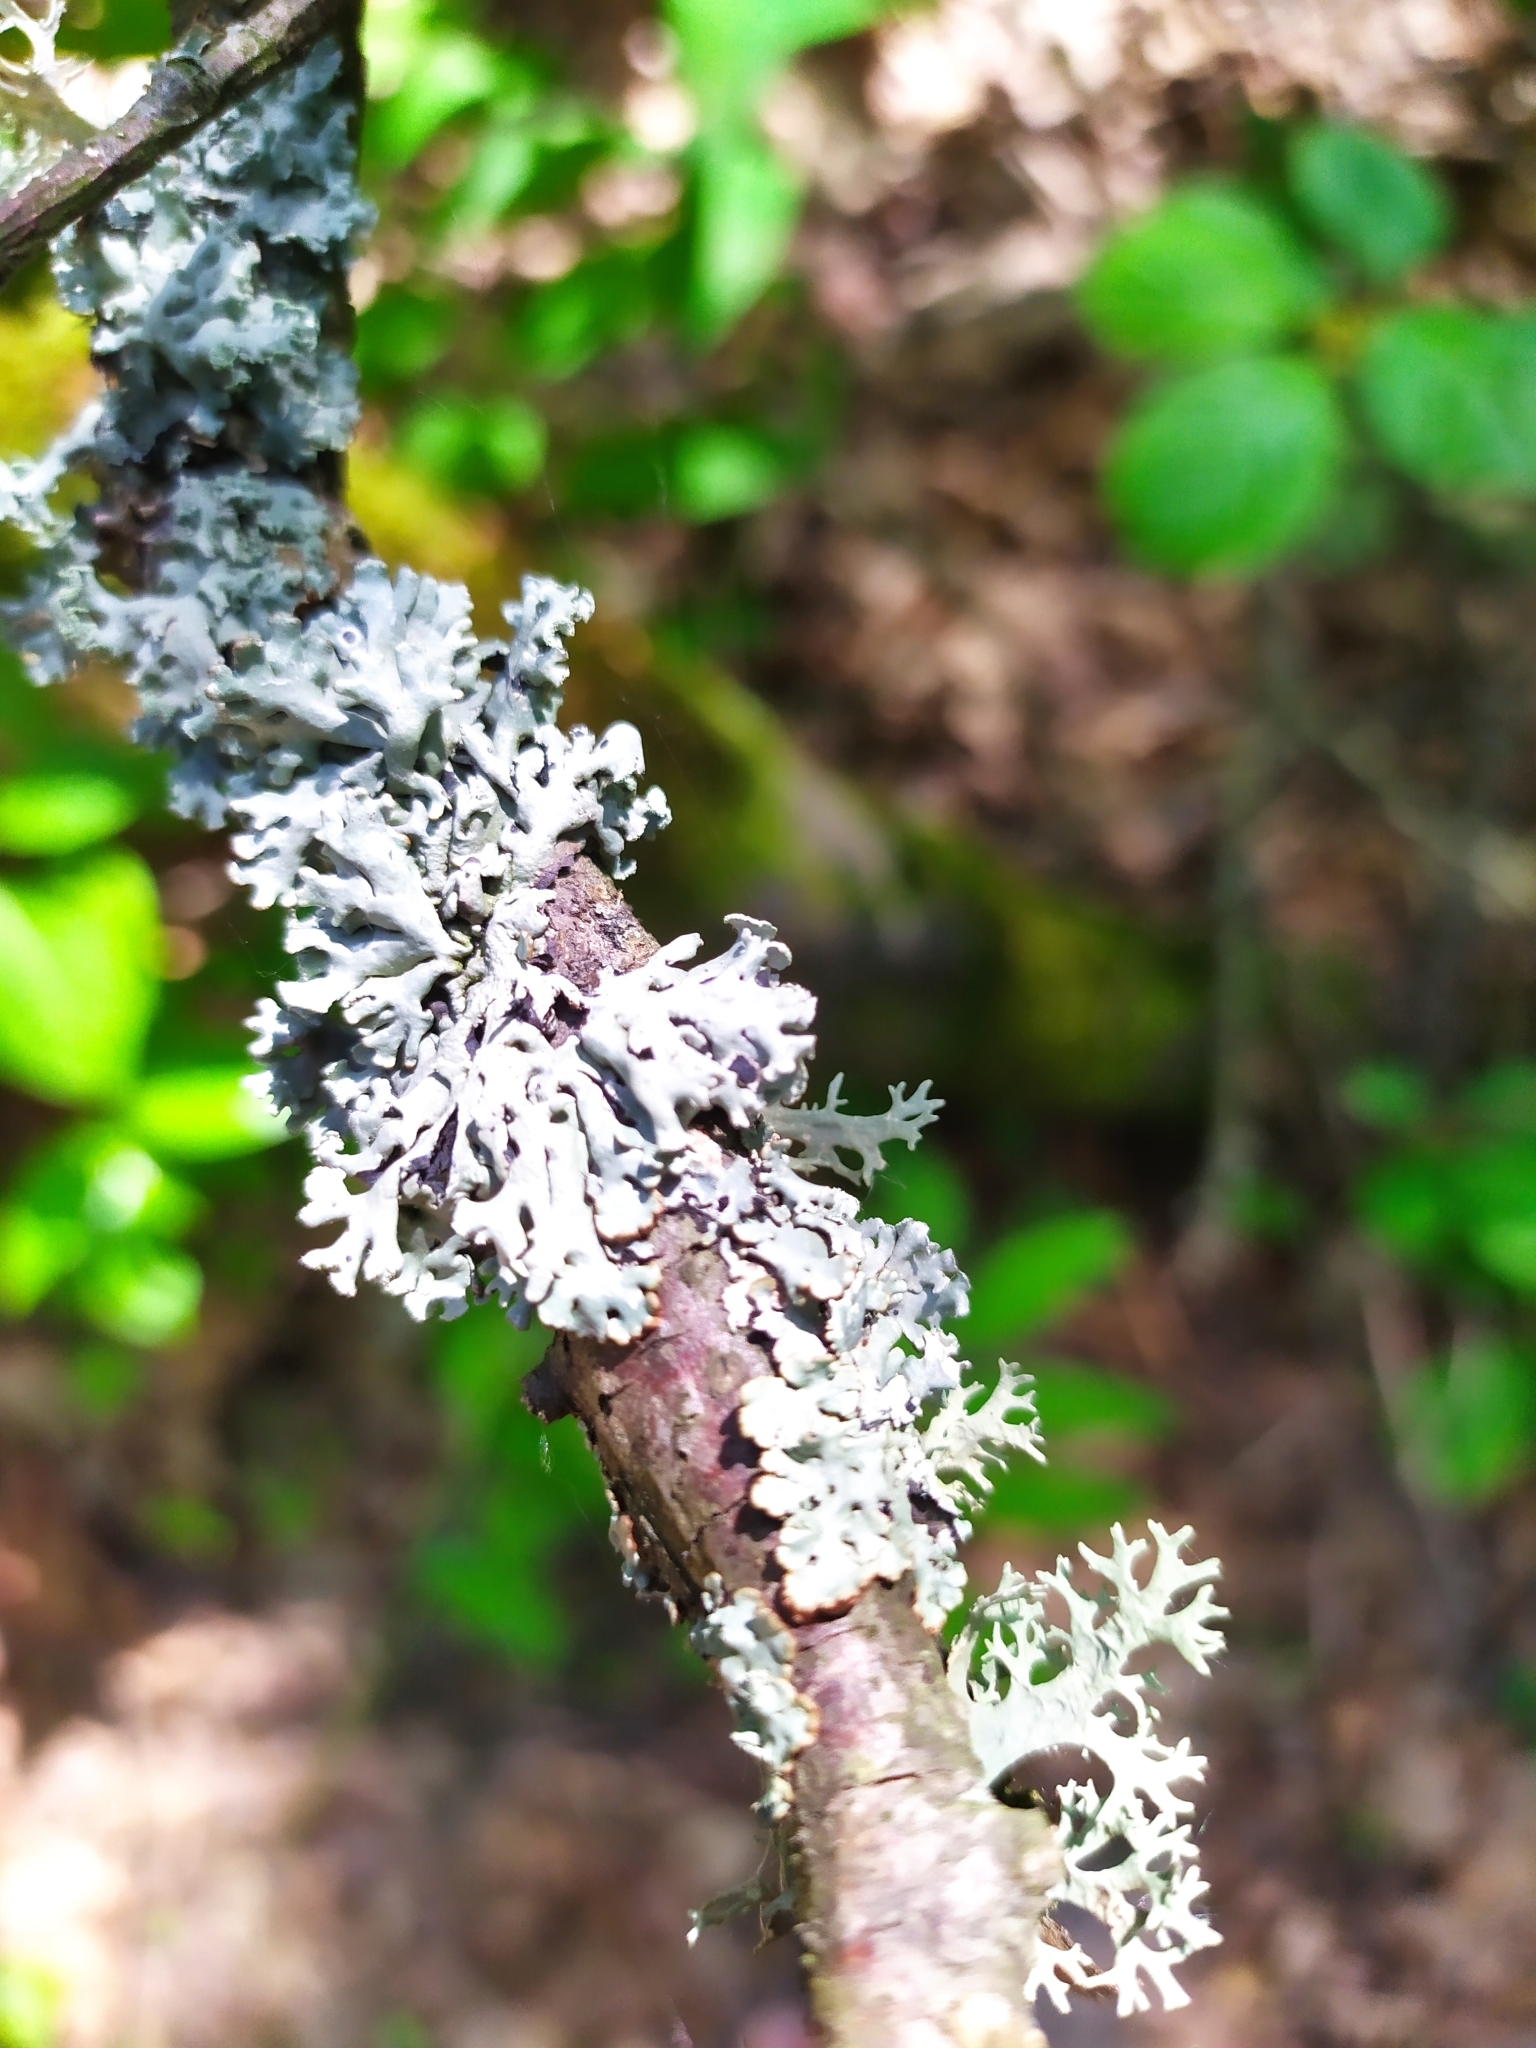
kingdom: Fungi
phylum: Ascomycota
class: Lecanoromycetes
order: Lecanorales
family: Parmeliaceae
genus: Hypogymnia
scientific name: Hypogymnia physodes
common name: Dark crottle
